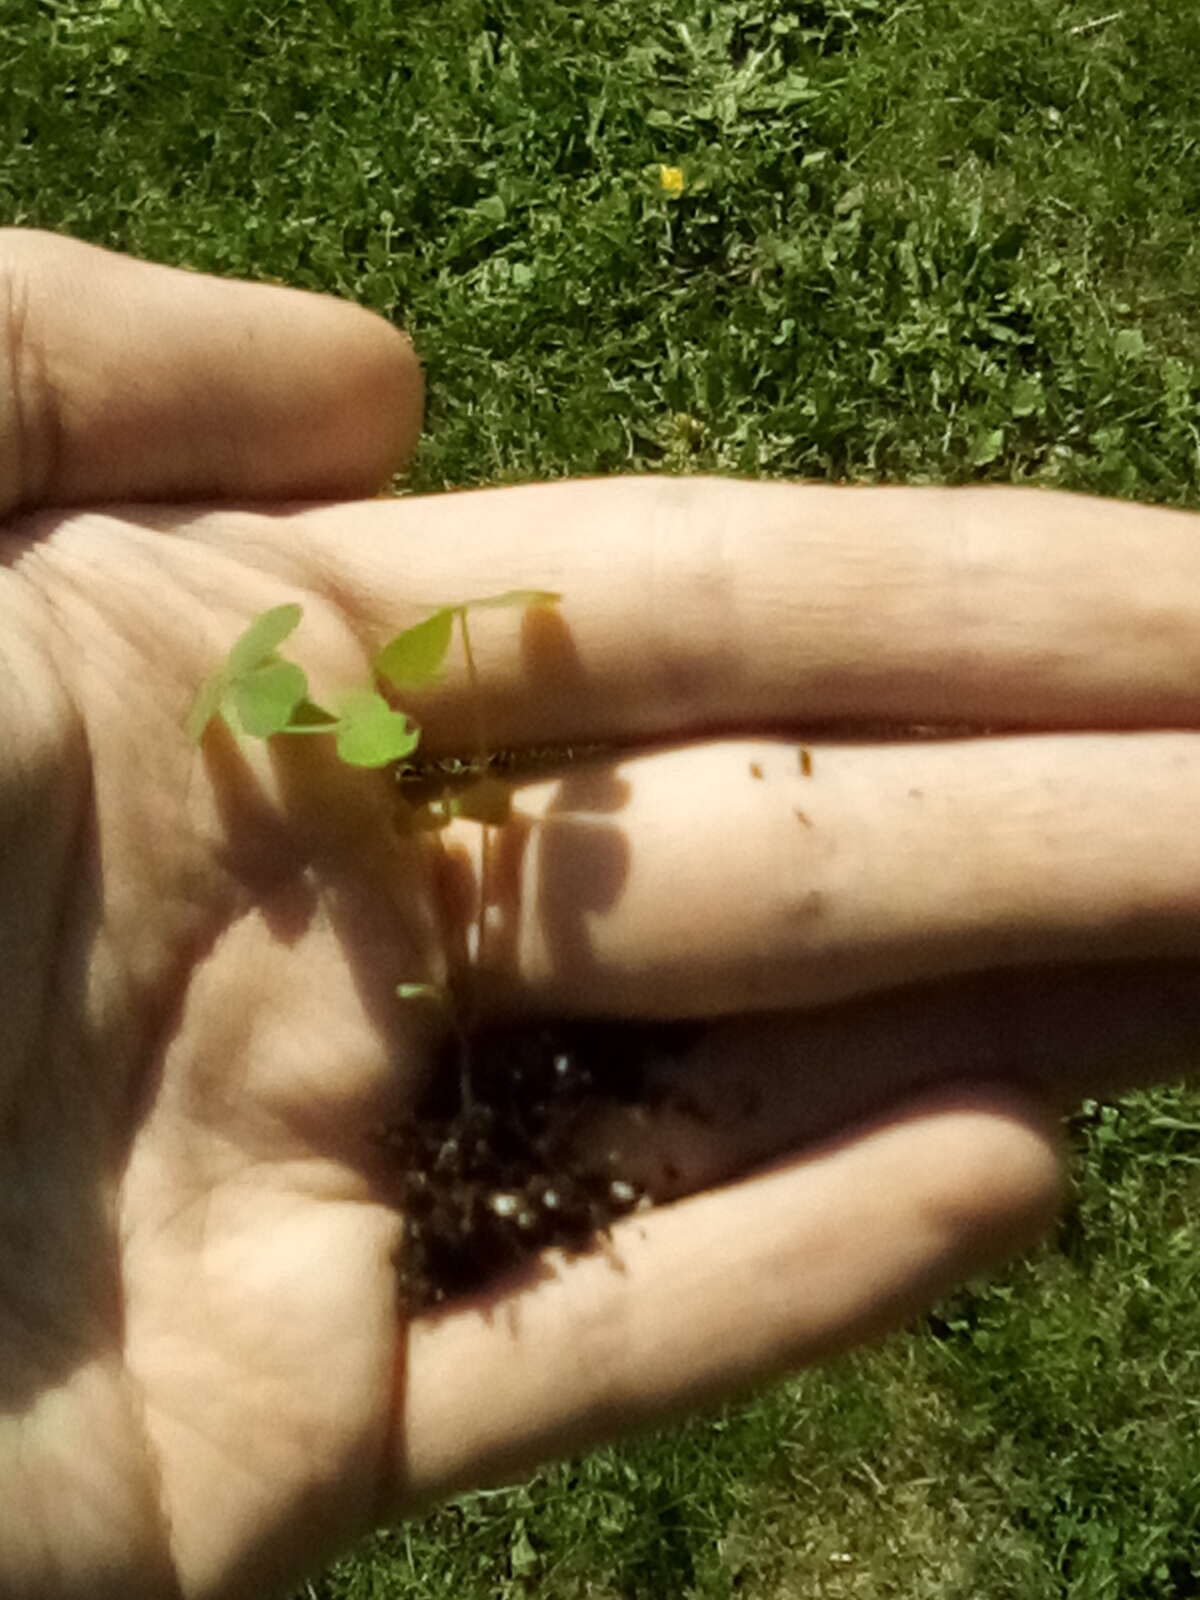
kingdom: Plantae
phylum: Tracheophyta
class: Magnoliopsida
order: Oxalidales
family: Oxalidaceae
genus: Oxalis
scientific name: Oxalis
